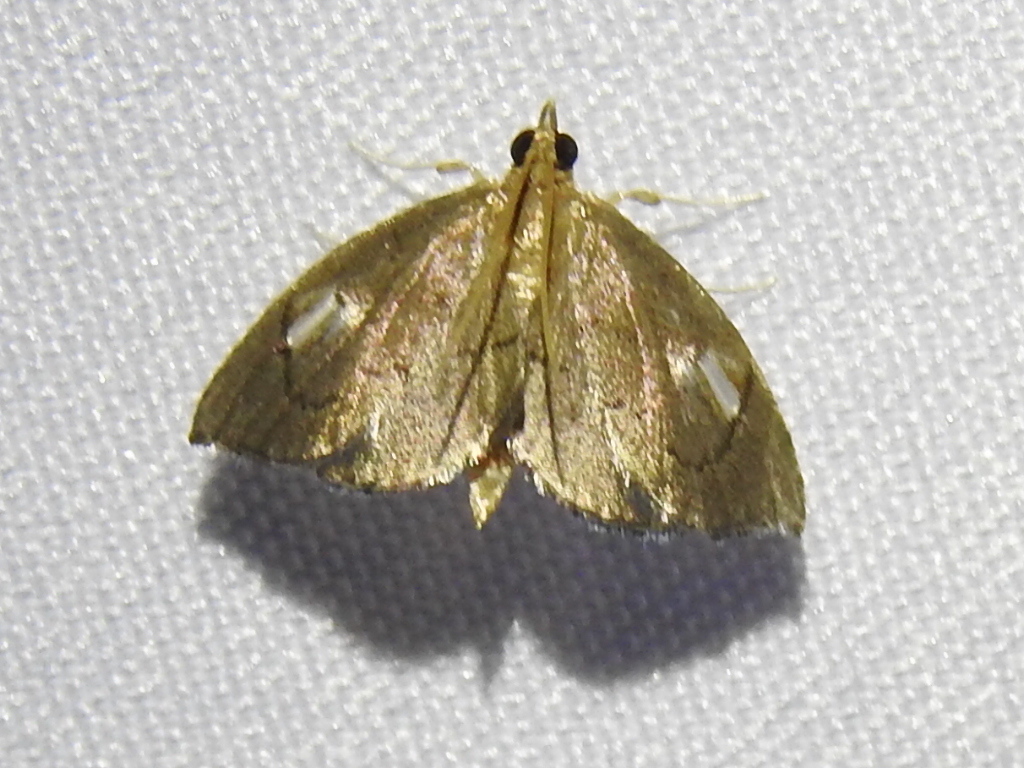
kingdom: Animalia
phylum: Arthropoda
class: Insecta
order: Lepidoptera
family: Crambidae
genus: Perispasta
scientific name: Perispasta caeculalis
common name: Titian peale's moth
